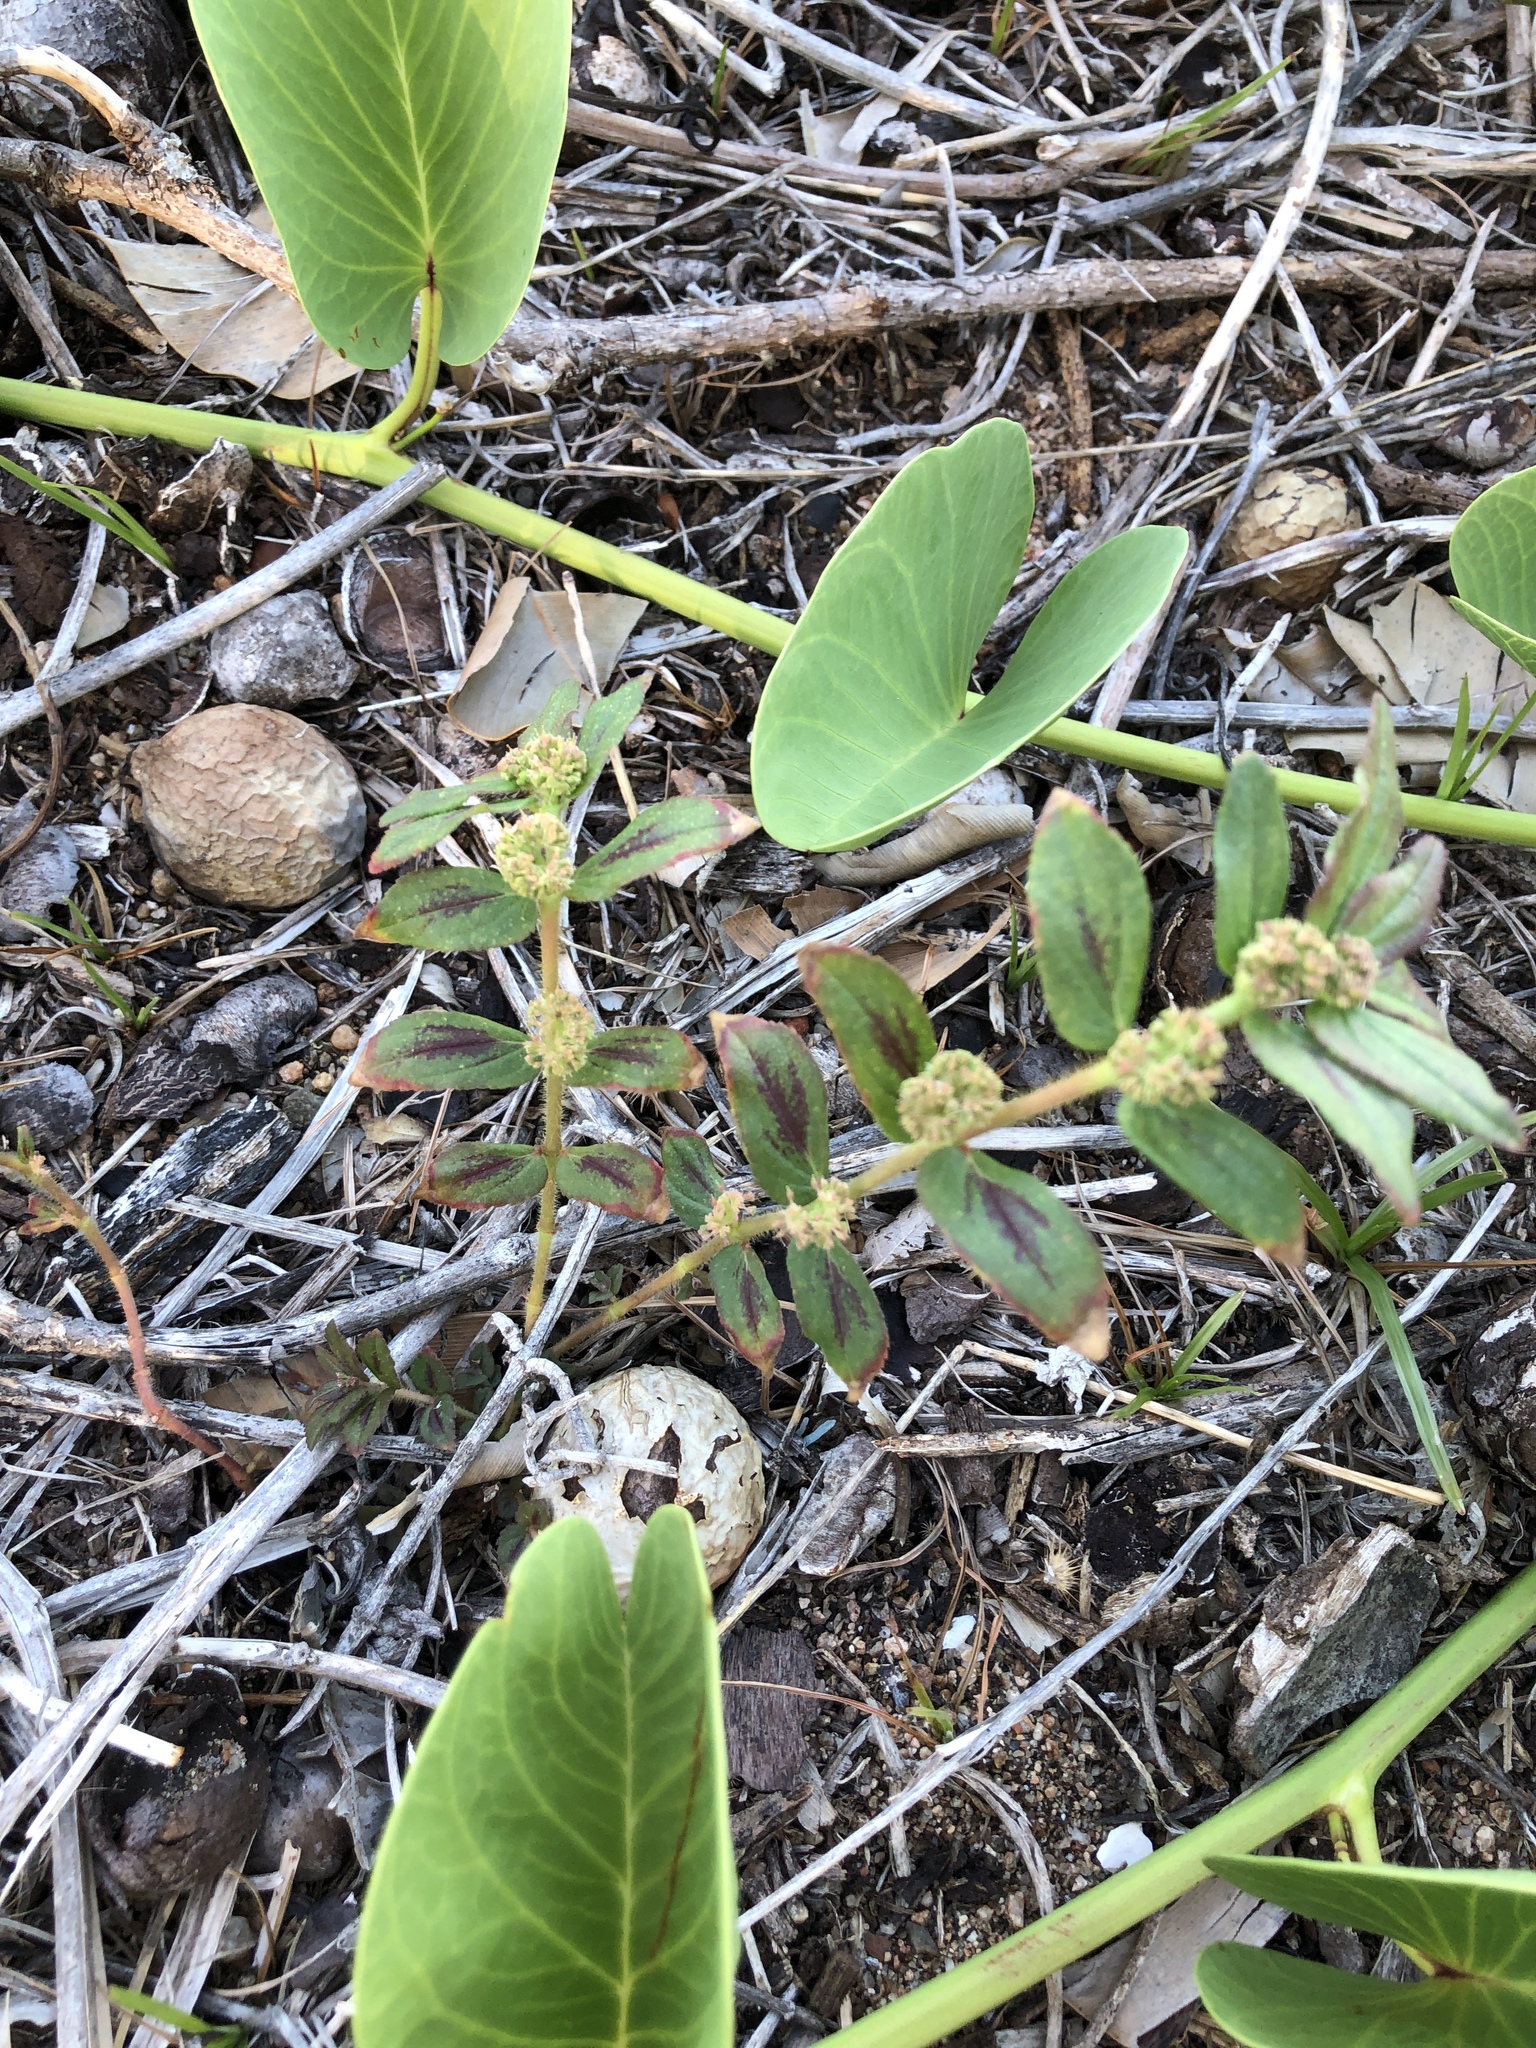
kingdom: Plantae
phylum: Tracheophyta
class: Magnoliopsida
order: Malpighiales
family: Euphorbiaceae
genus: Euphorbia
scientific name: Euphorbia hirta
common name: Pillpod sandmat
